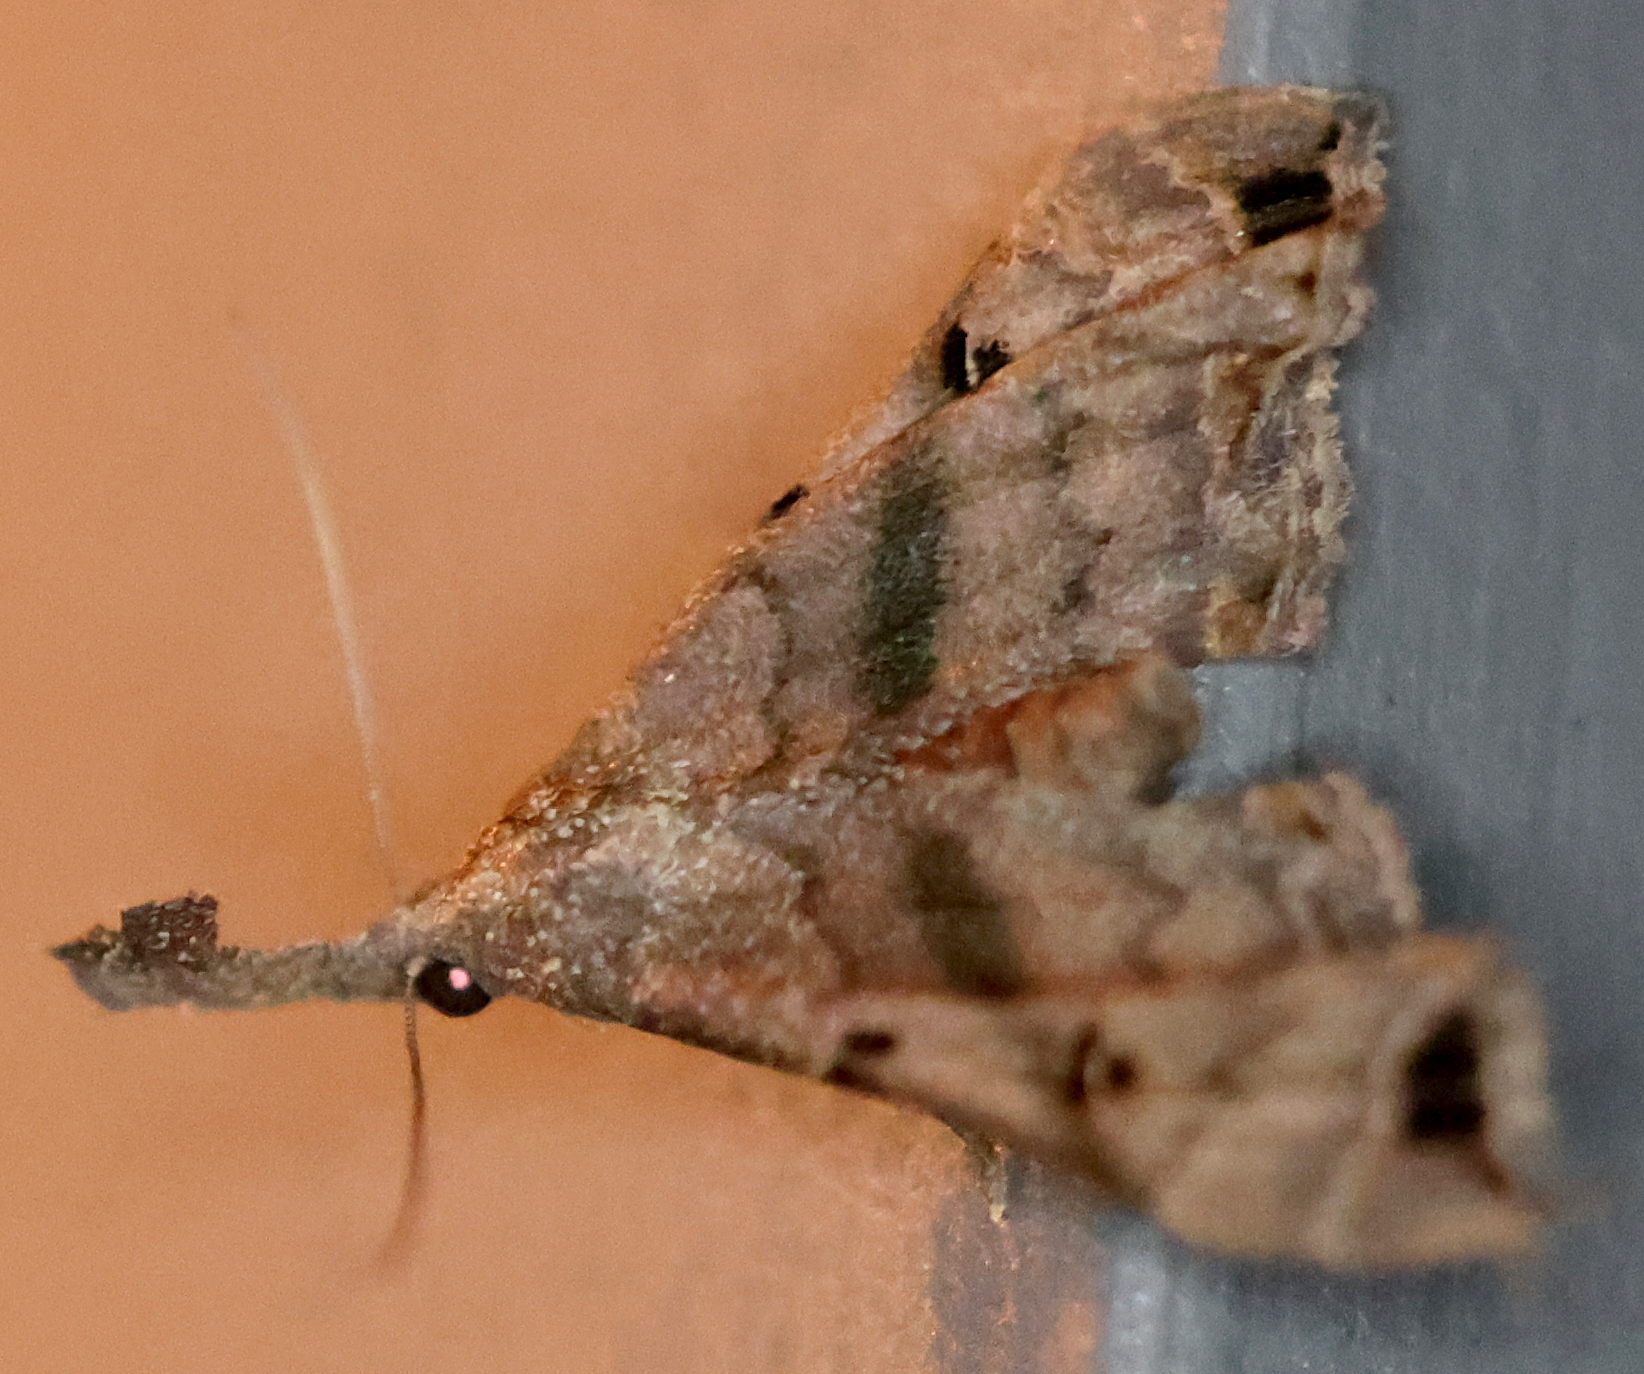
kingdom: Animalia
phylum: Arthropoda
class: Insecta
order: Lepidoptera
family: Erebidae
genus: Palthis
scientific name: Palthis asopialis
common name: Faint-spotted palthis moth
